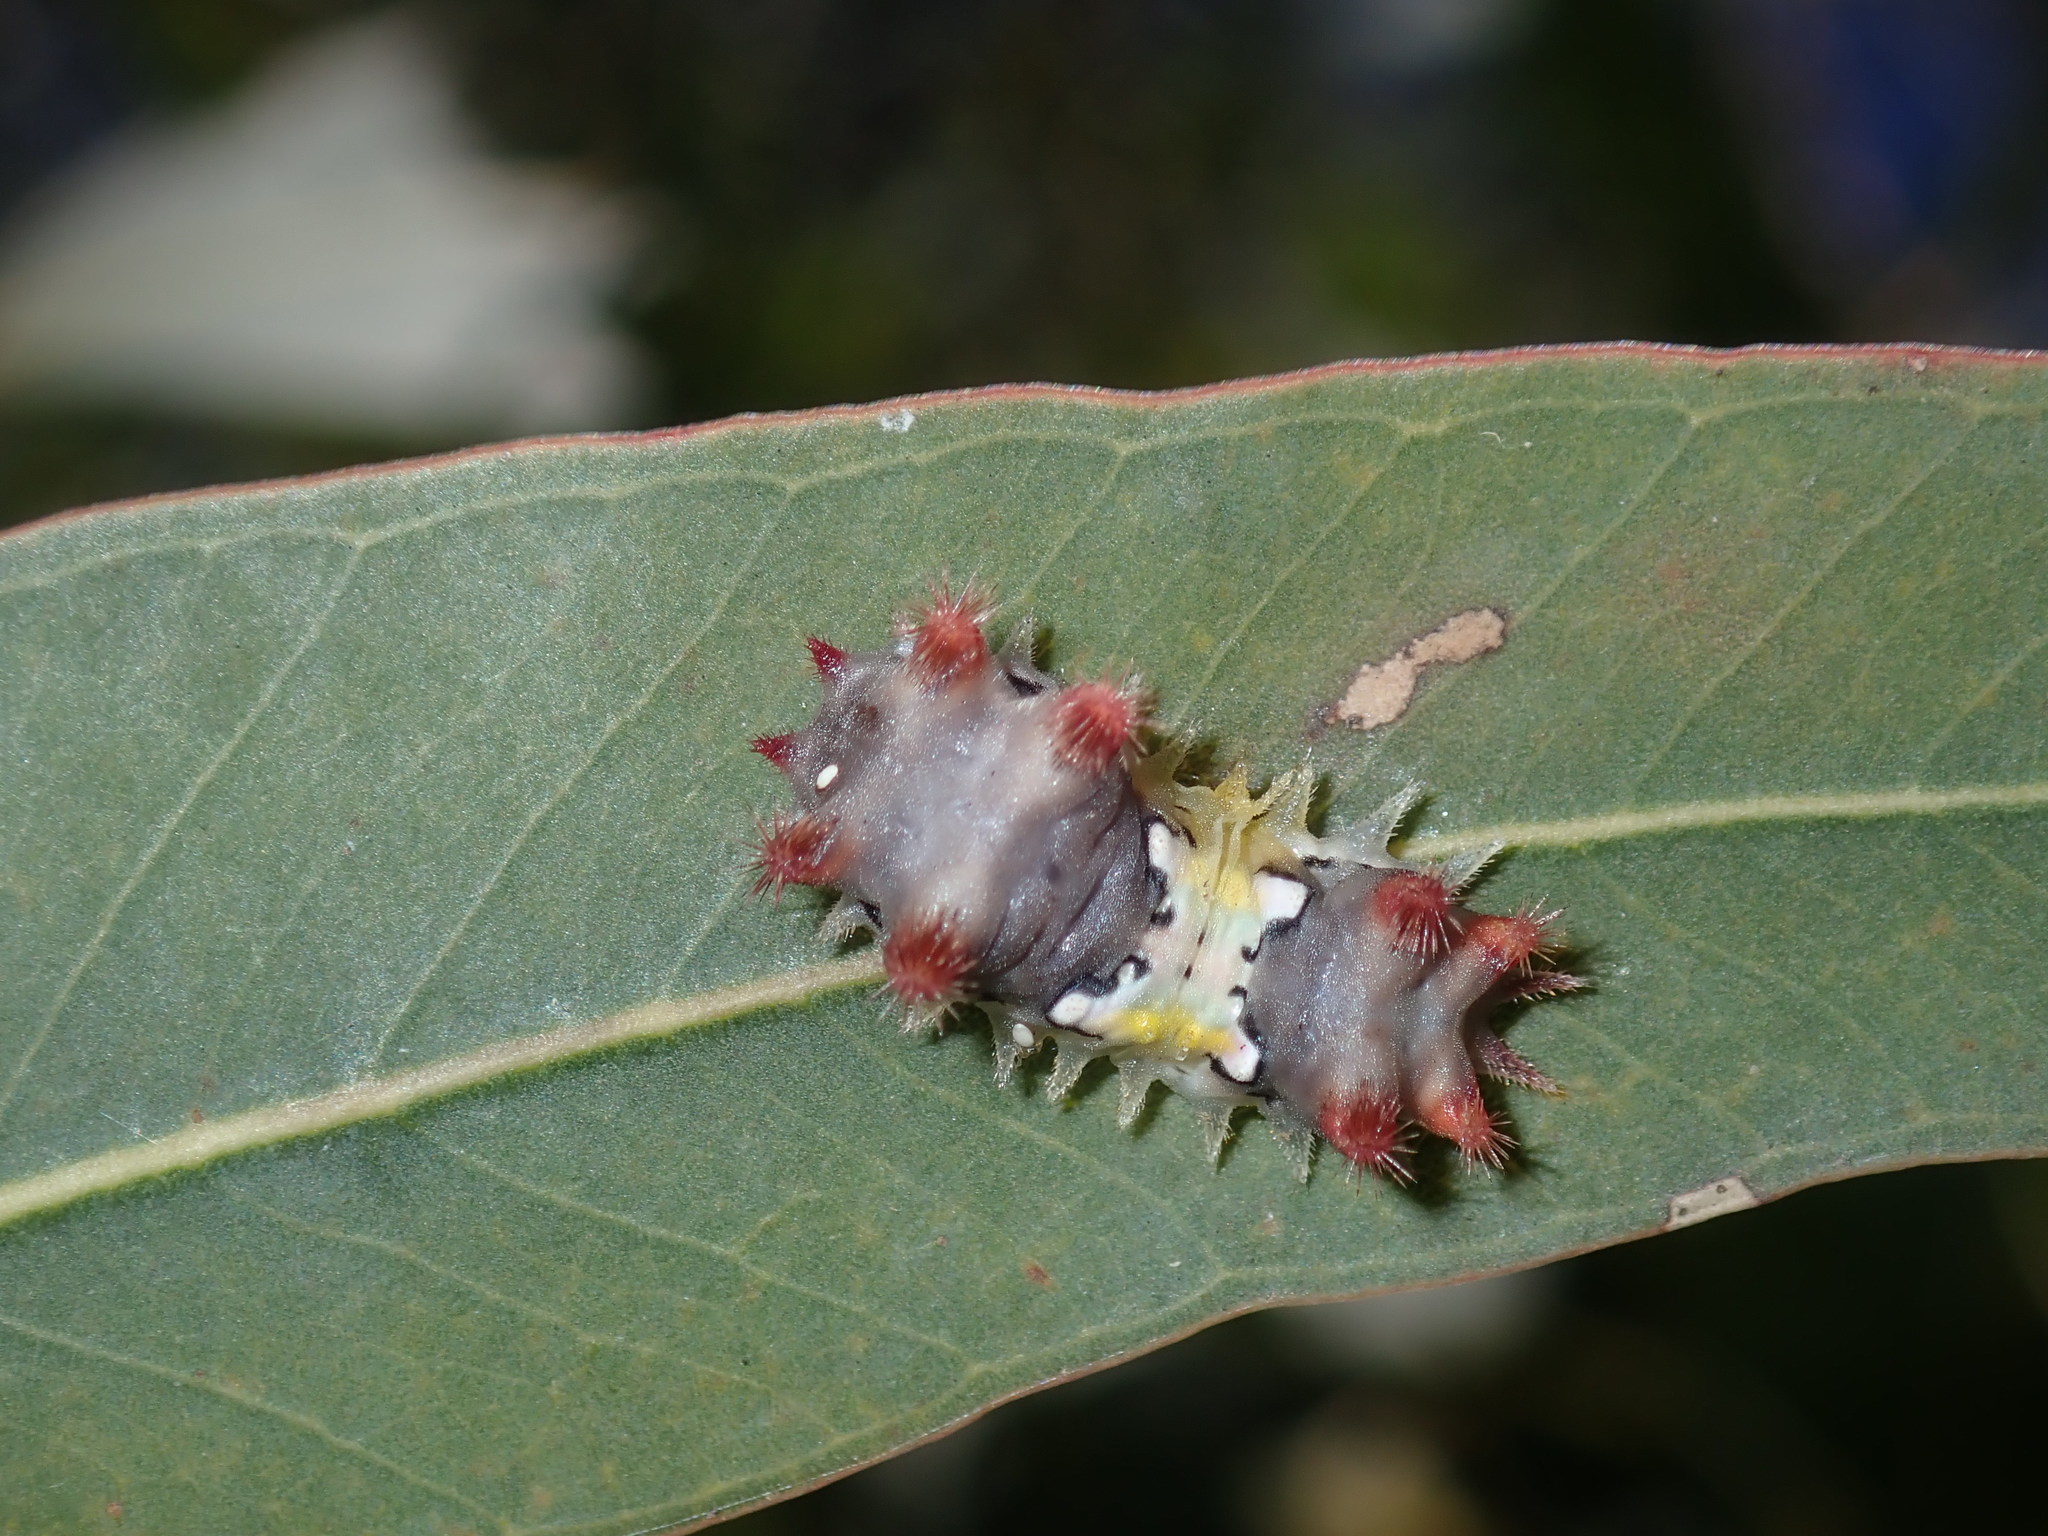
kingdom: Animalia
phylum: Arthropoda
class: Insecta
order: Lepidoptera
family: Limacodidae
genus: Doratifera
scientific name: Doratifera vulnerans
